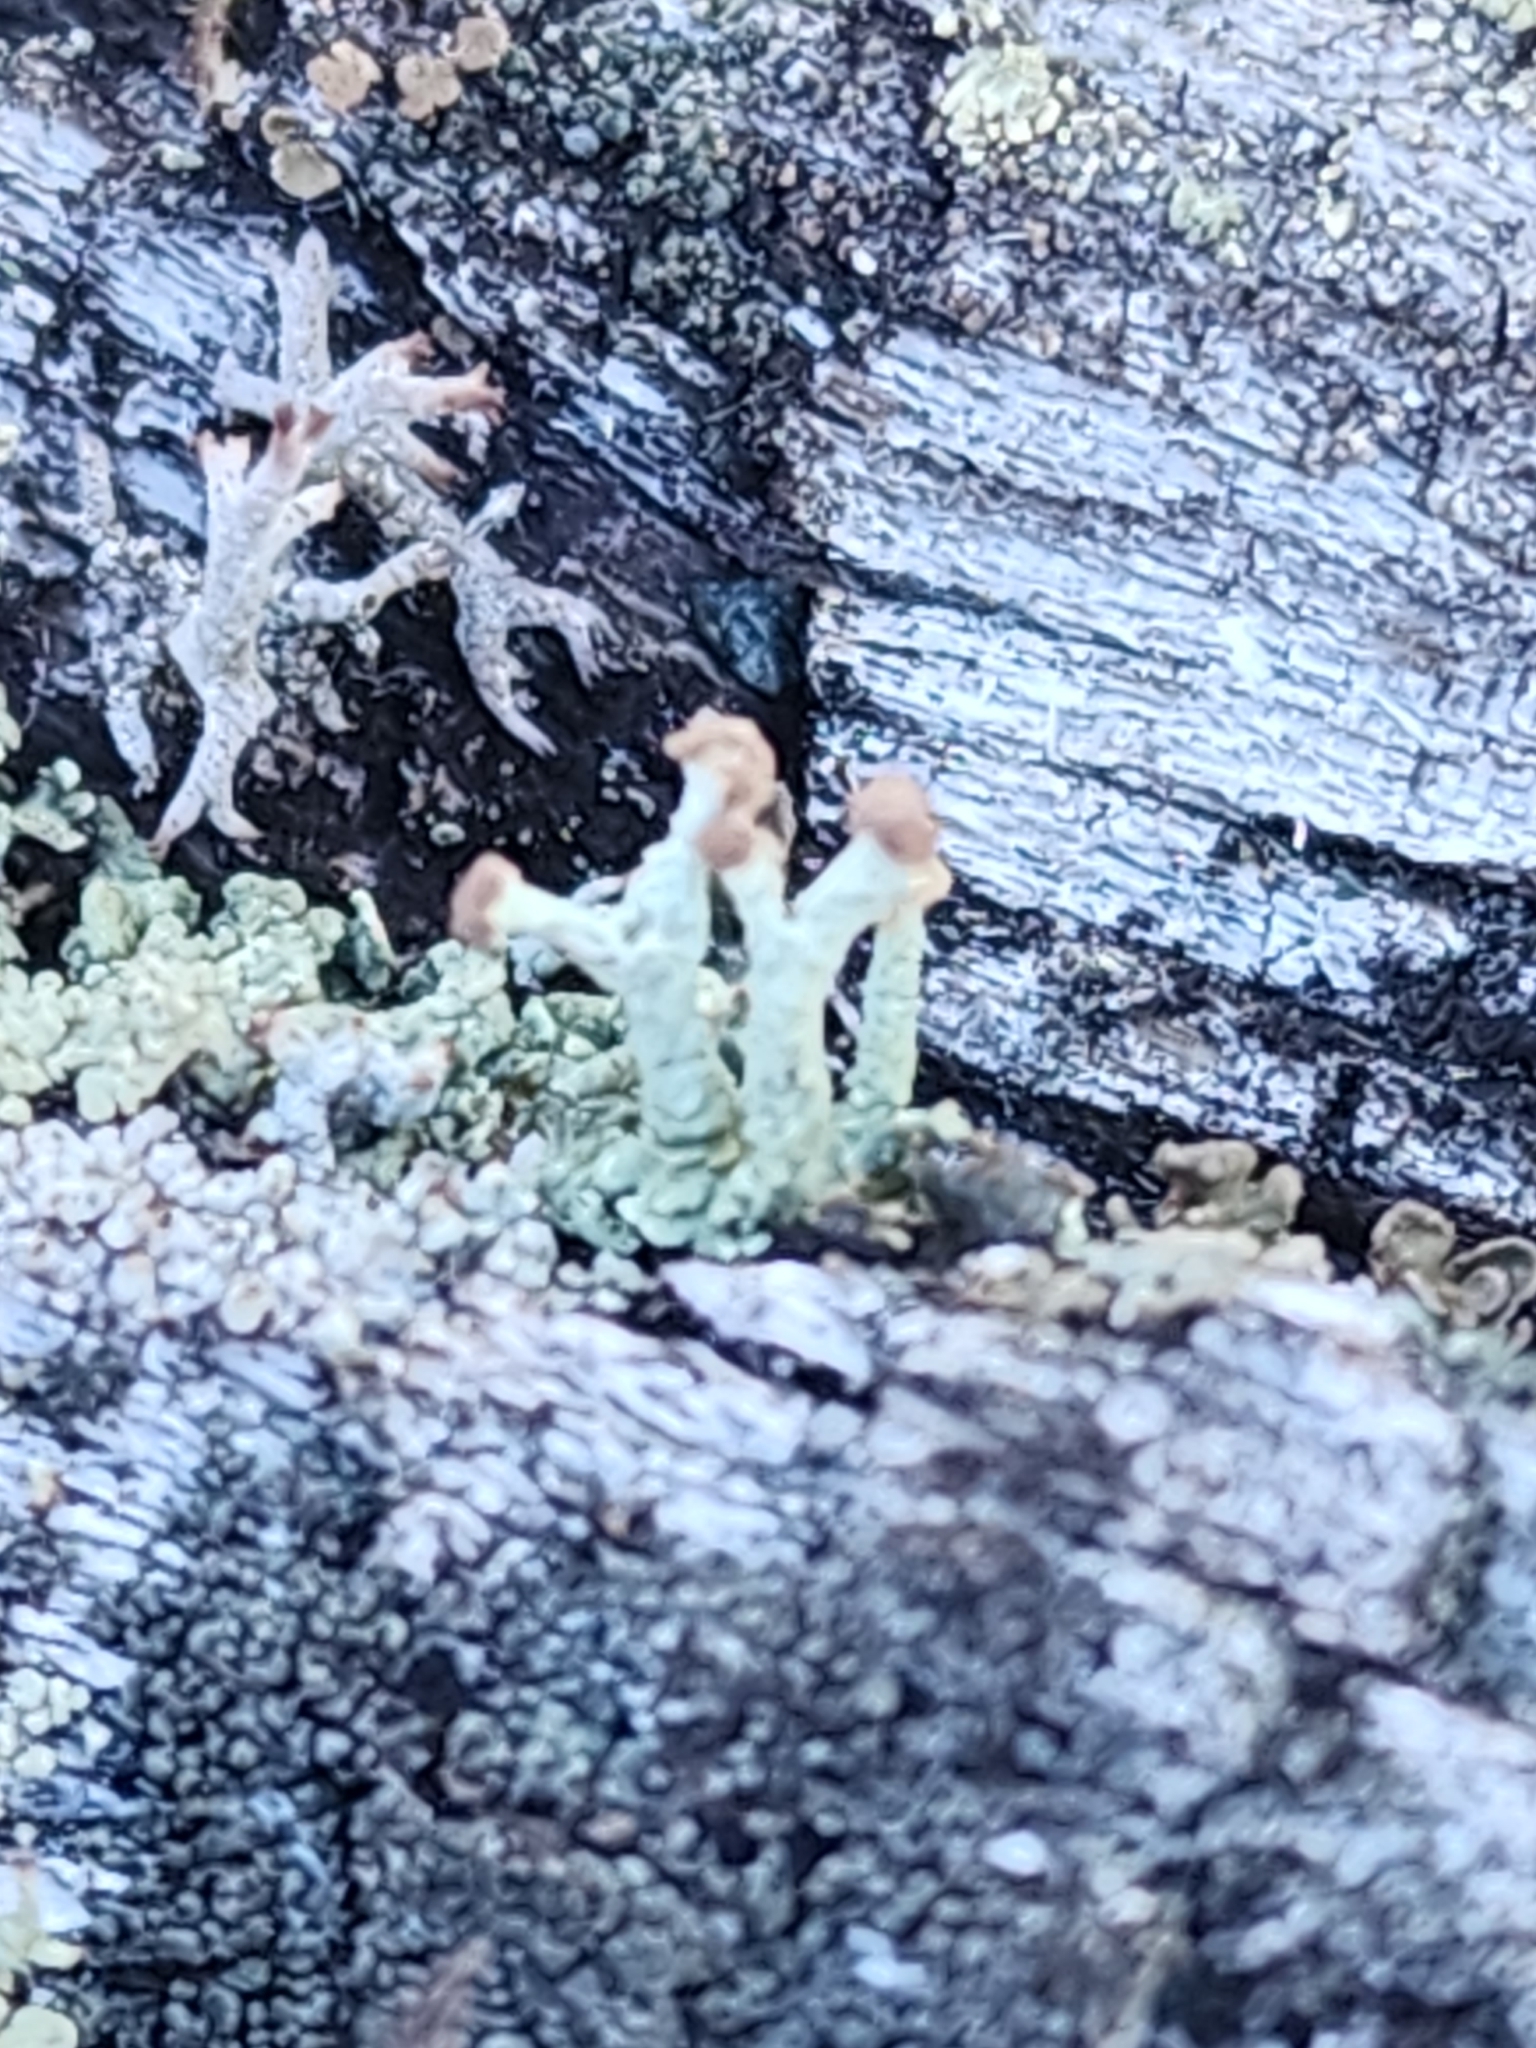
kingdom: Fungi
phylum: Ascomycota
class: Lecanoromycetes
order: Lecanorales
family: Cladoniaceae
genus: Cladonia
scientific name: Cladonia botrytes
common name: Stump lichen
